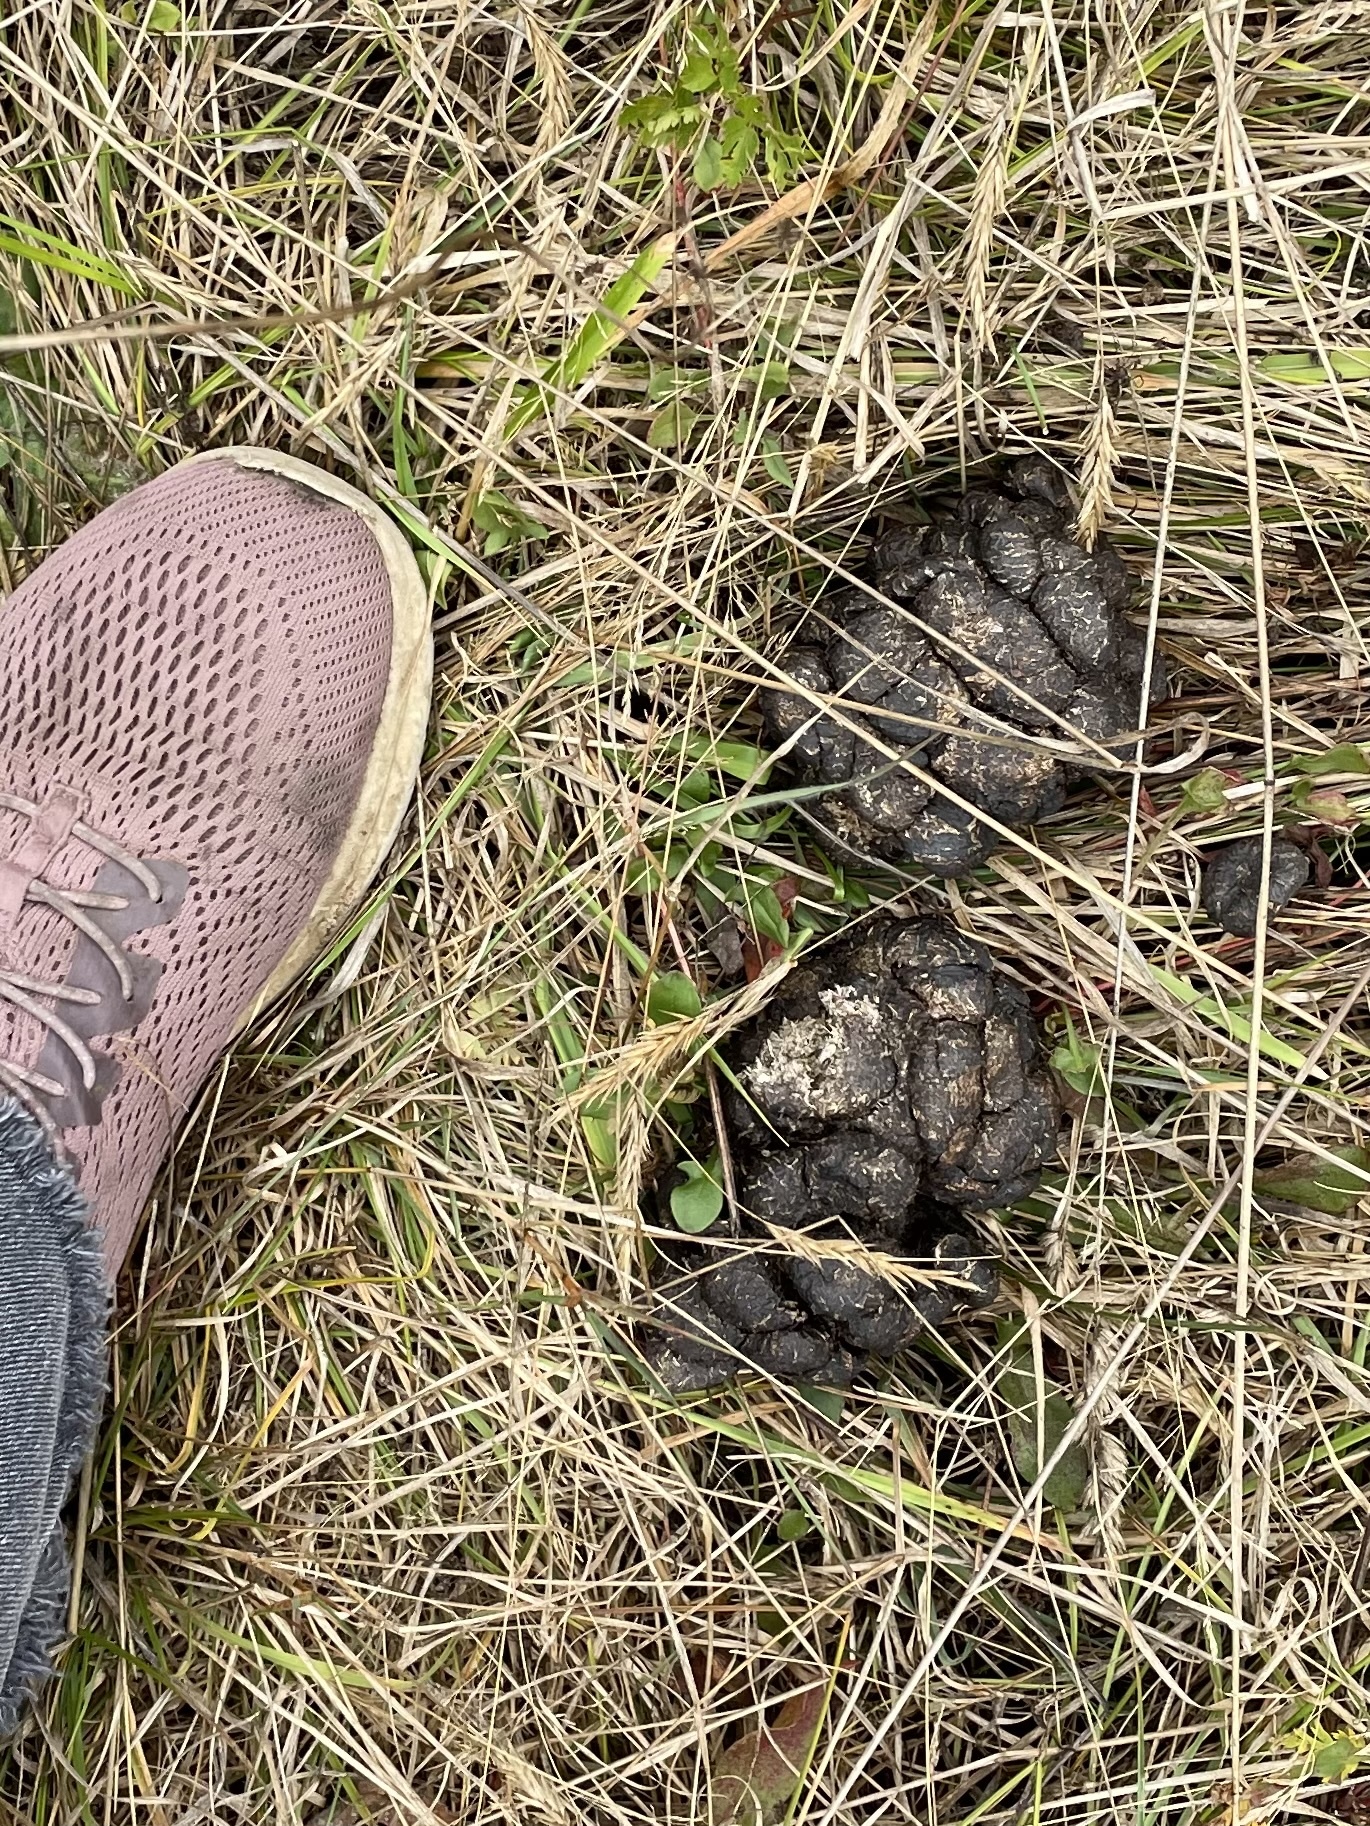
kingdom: Animalia
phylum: Chordata
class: Mammalia
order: Artiodactyla
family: Cervidae
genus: Cervus
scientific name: Cervus elaphus
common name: Red deer
